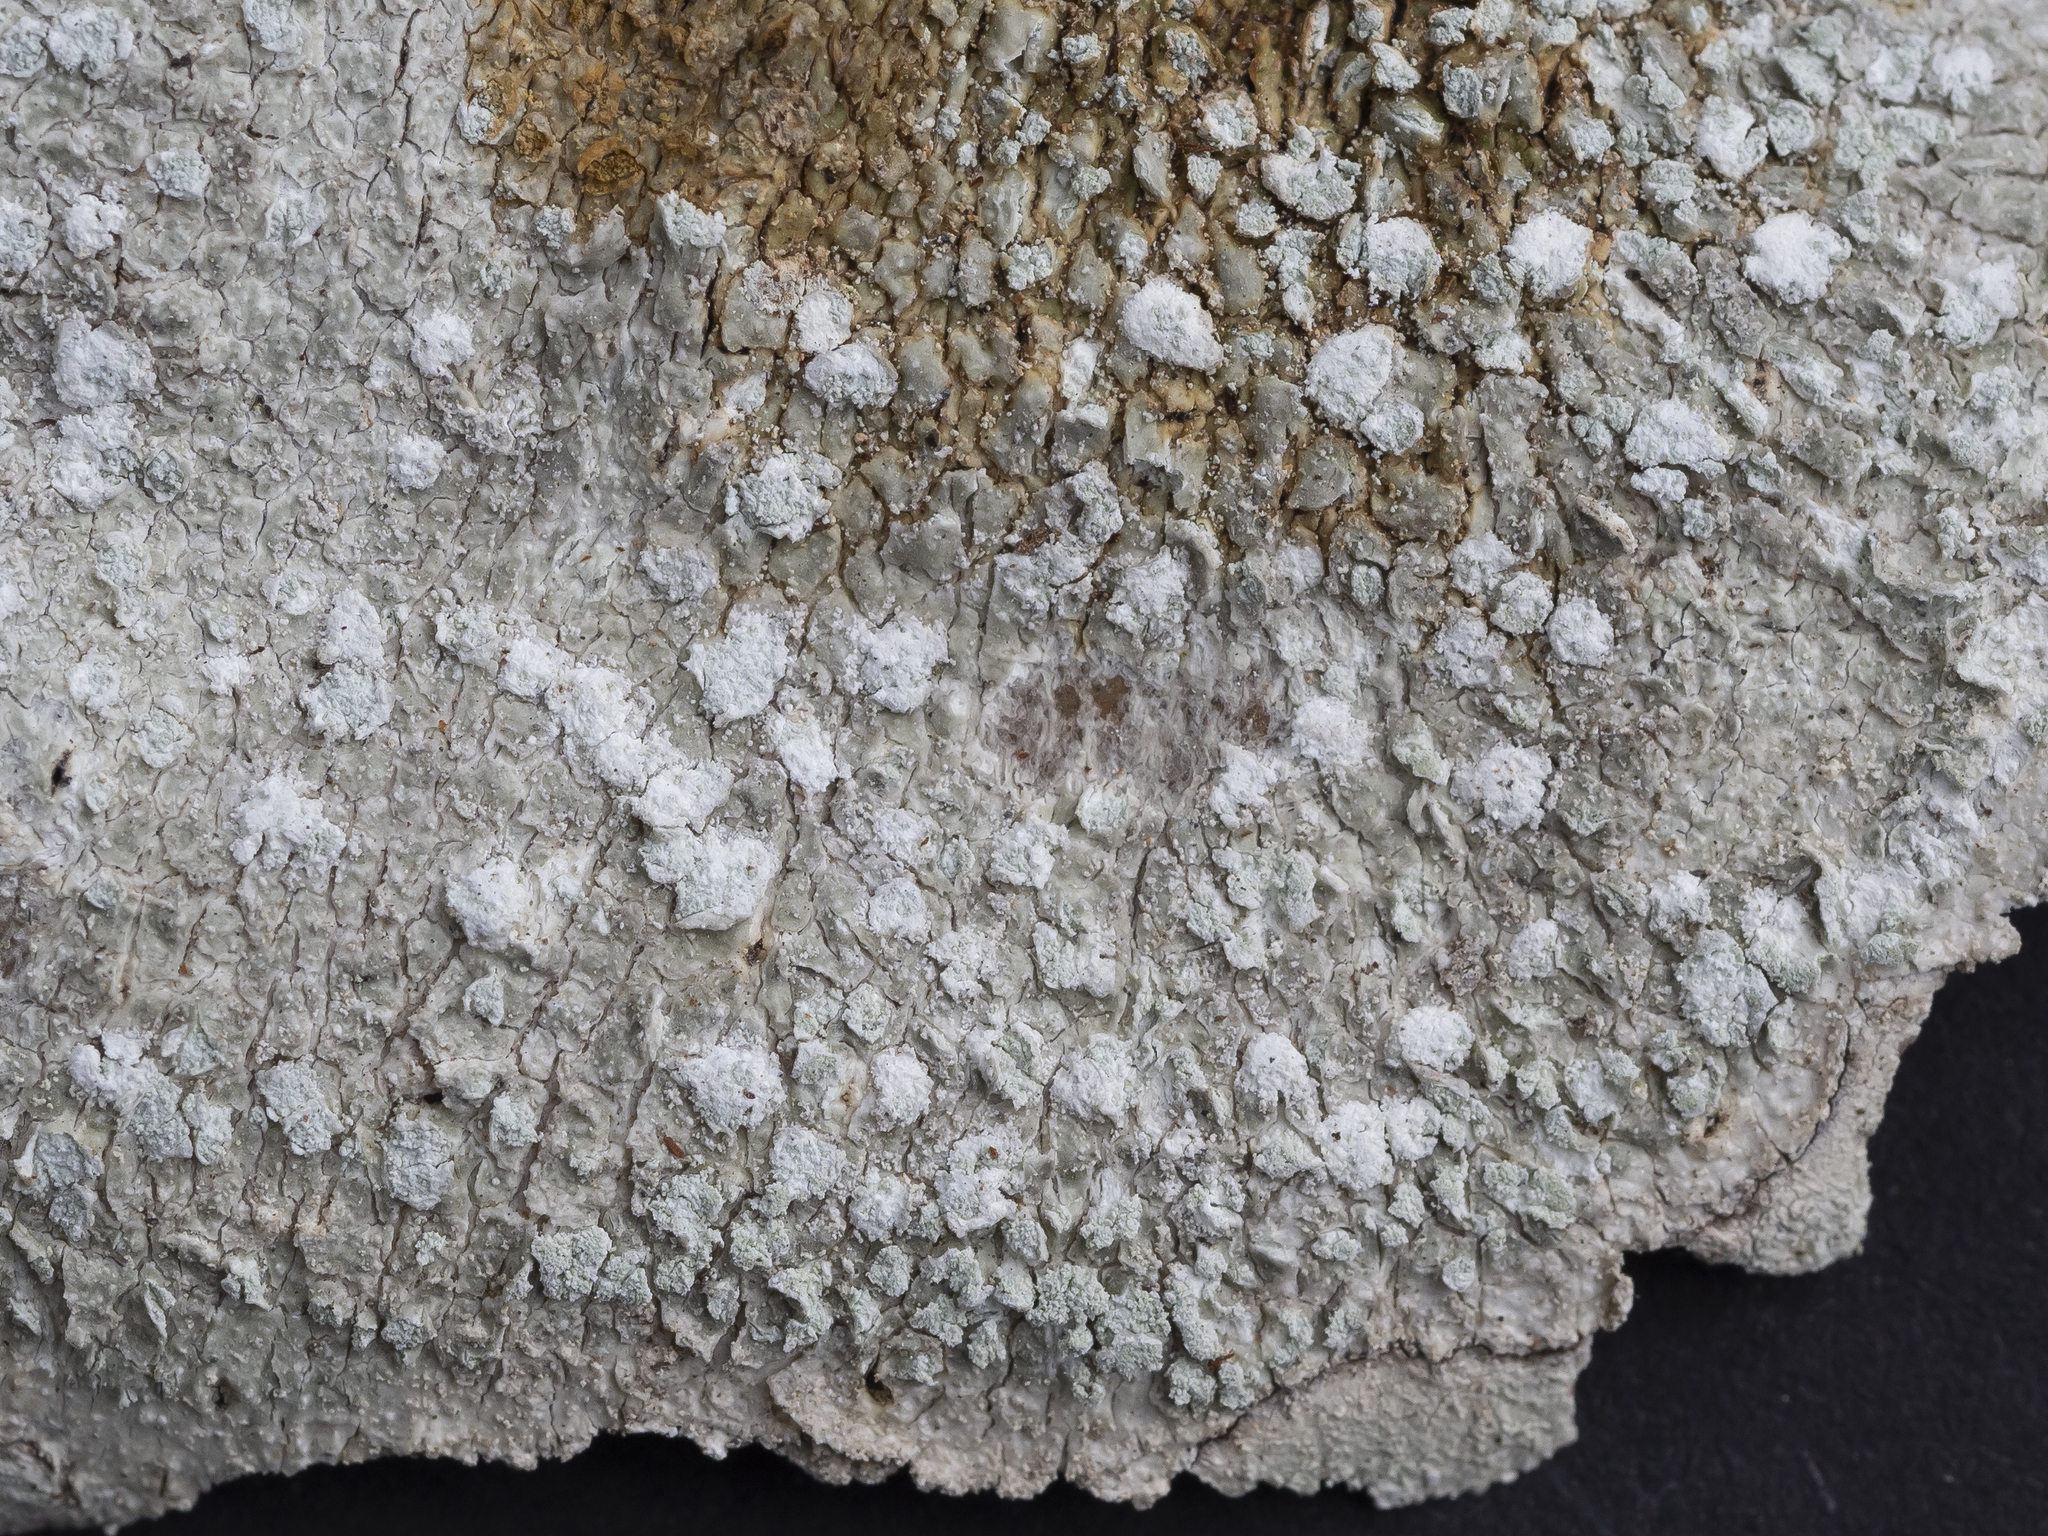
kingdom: Fungi
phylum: Ascomycota
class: Lecanoromycetes
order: Pertusariales
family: Pertusariaceae
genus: Lepra
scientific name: Lepra albescens
